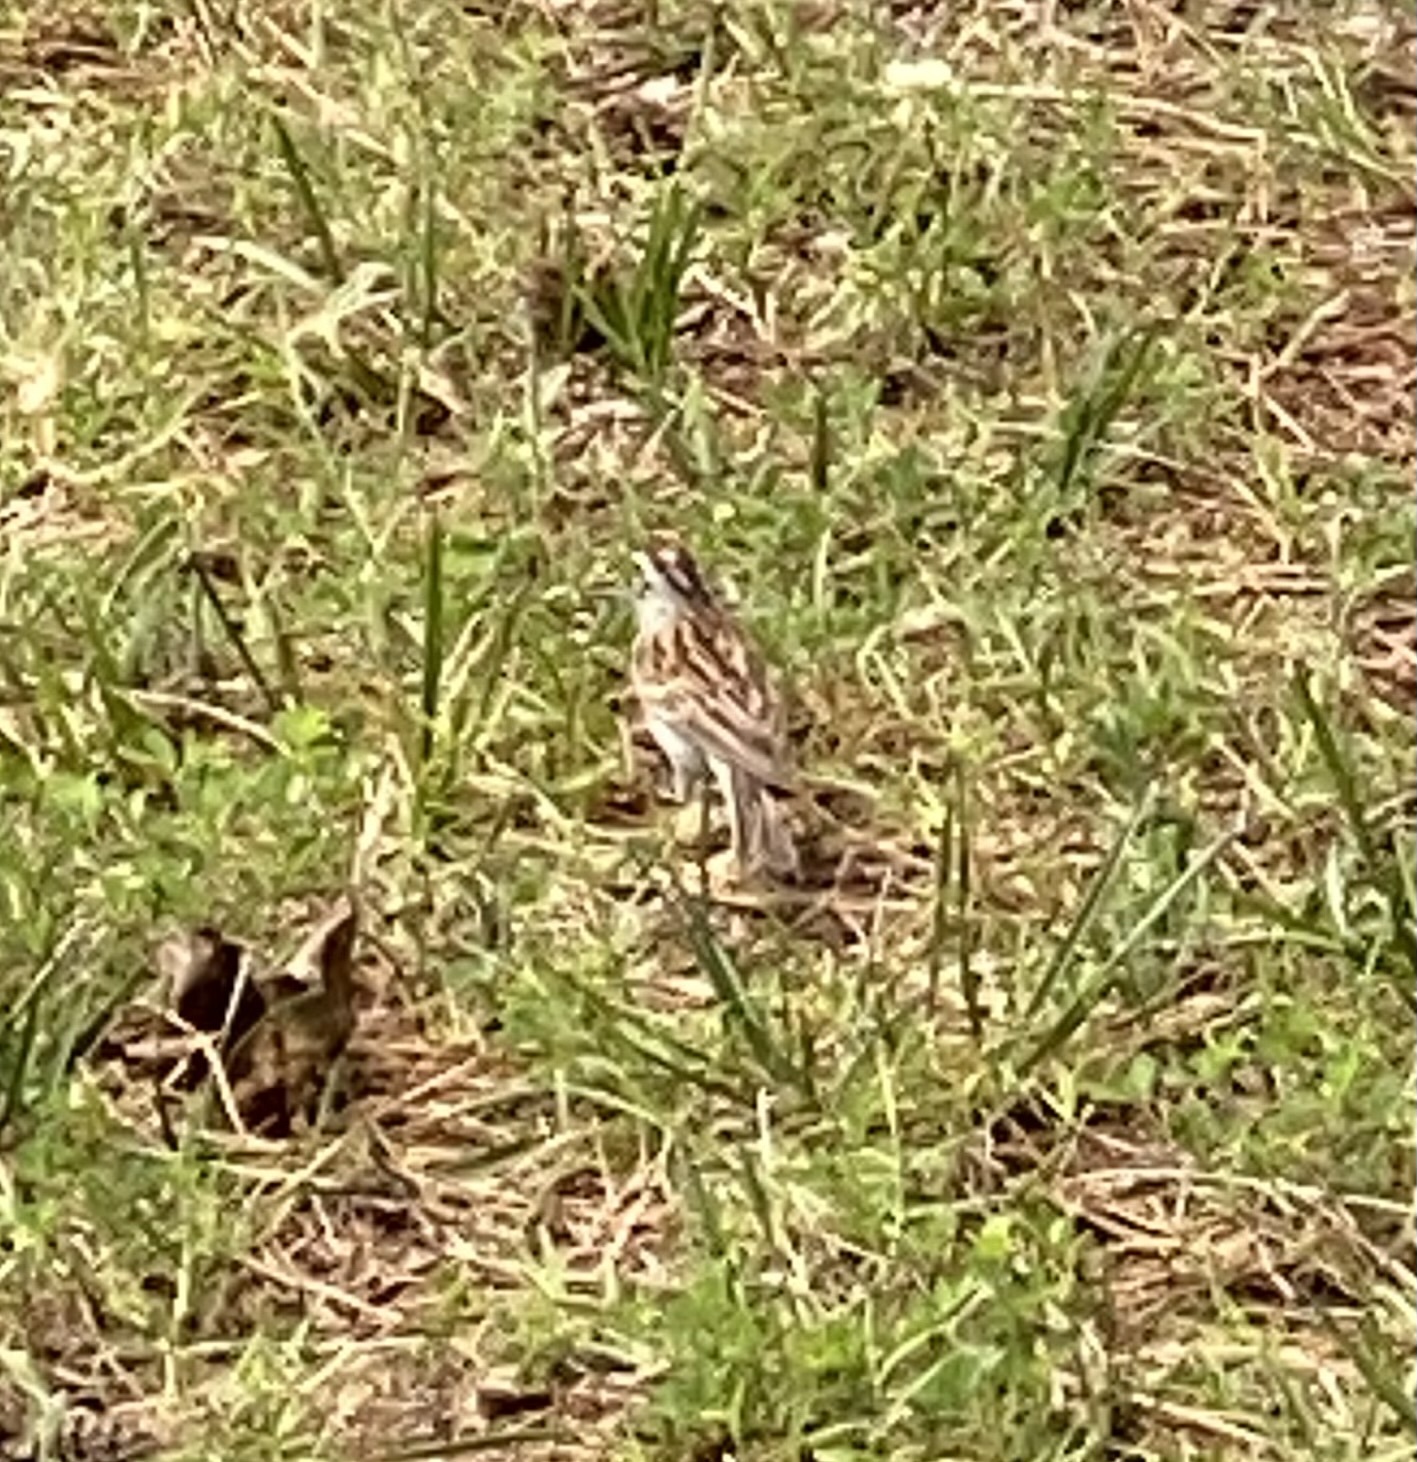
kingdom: Animalia
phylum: Chordata
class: Aves
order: Passeriformes
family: Passerellidae
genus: Spizella
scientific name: Spizella passerina
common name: Chipping sparrow
